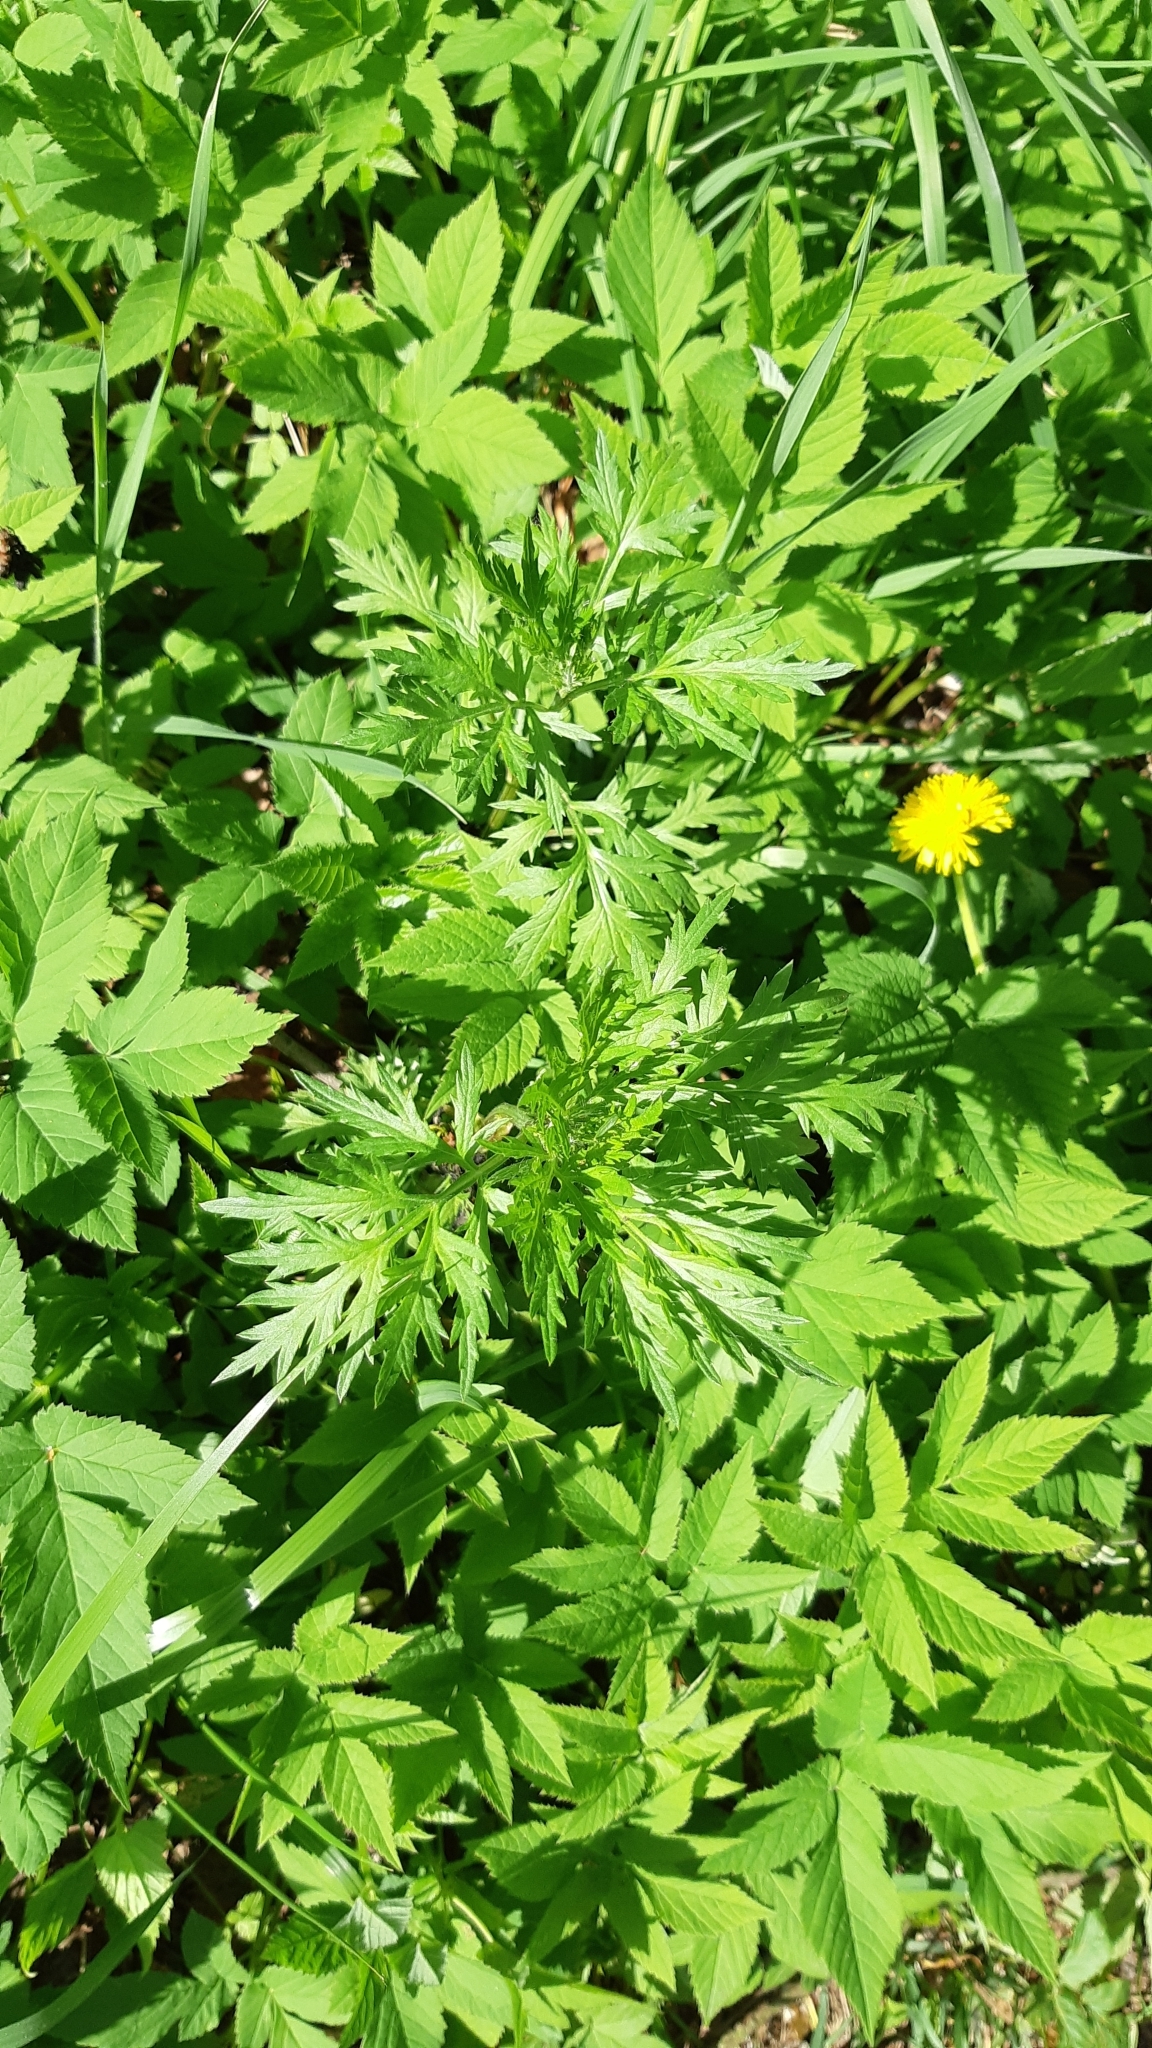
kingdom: Plantae
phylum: Tracheophyta
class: Magnoliopsida
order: Asterales
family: Asteraceae
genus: Artemisia
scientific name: Artemisia vulgaris
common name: Mugwort
